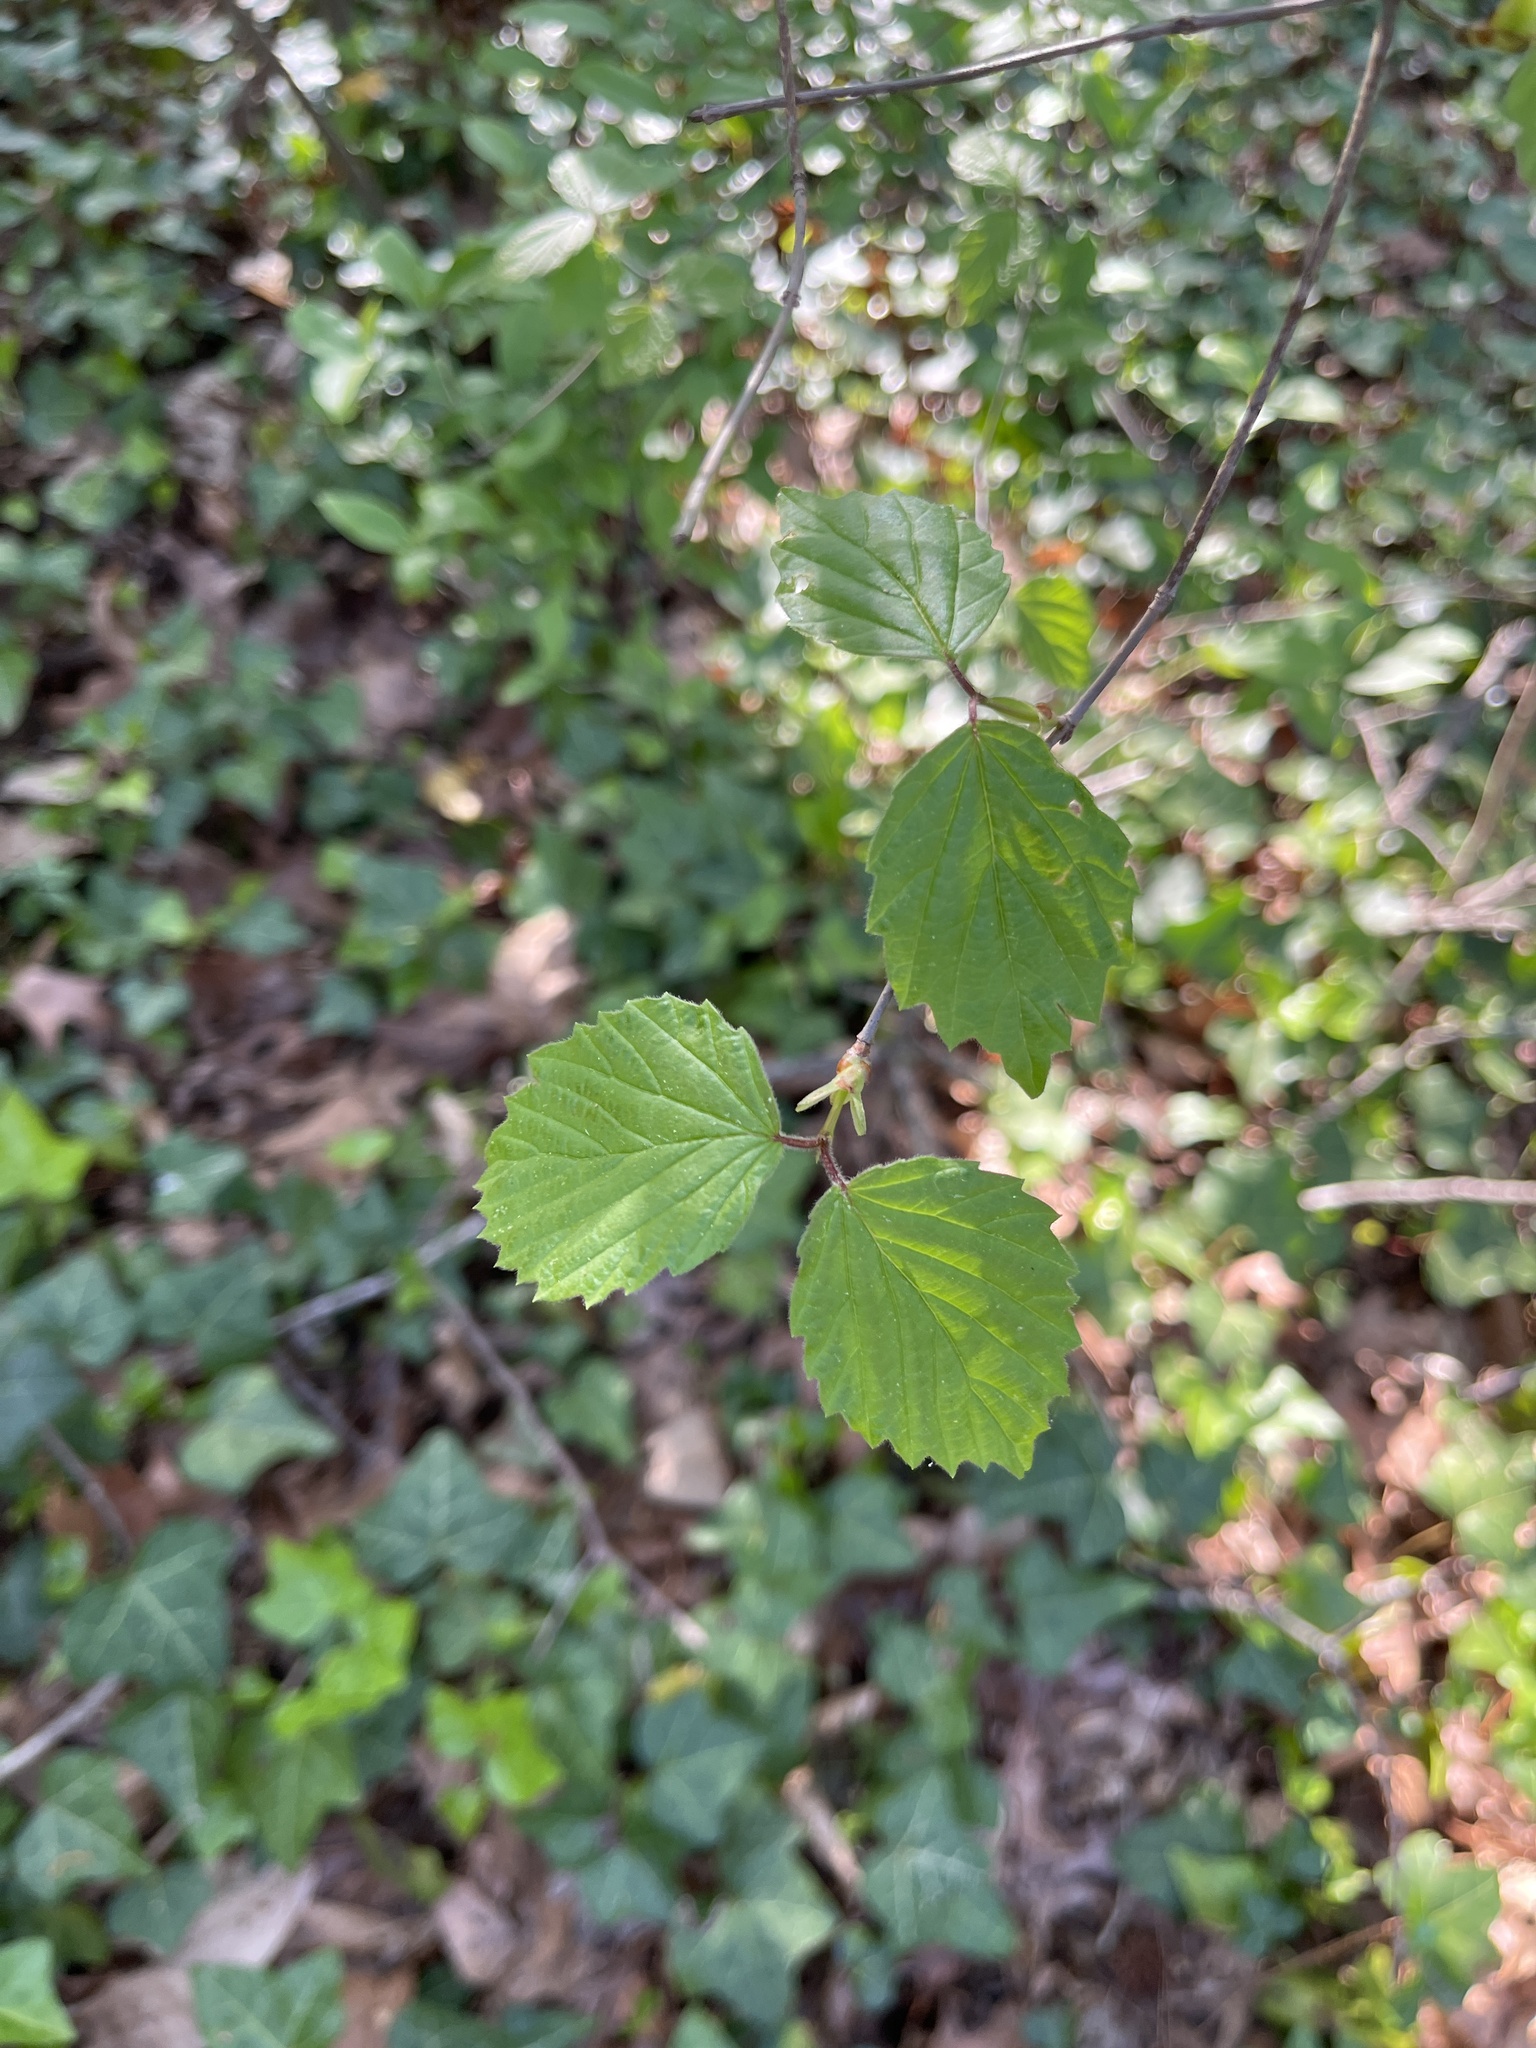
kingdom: Plantae
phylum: Tracheophyta
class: Magnoliopsida
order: Dipsacales
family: Viburnaceae
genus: Viburnum
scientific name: Viburnum rafinesqueanum
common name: Downy arrow-wood
